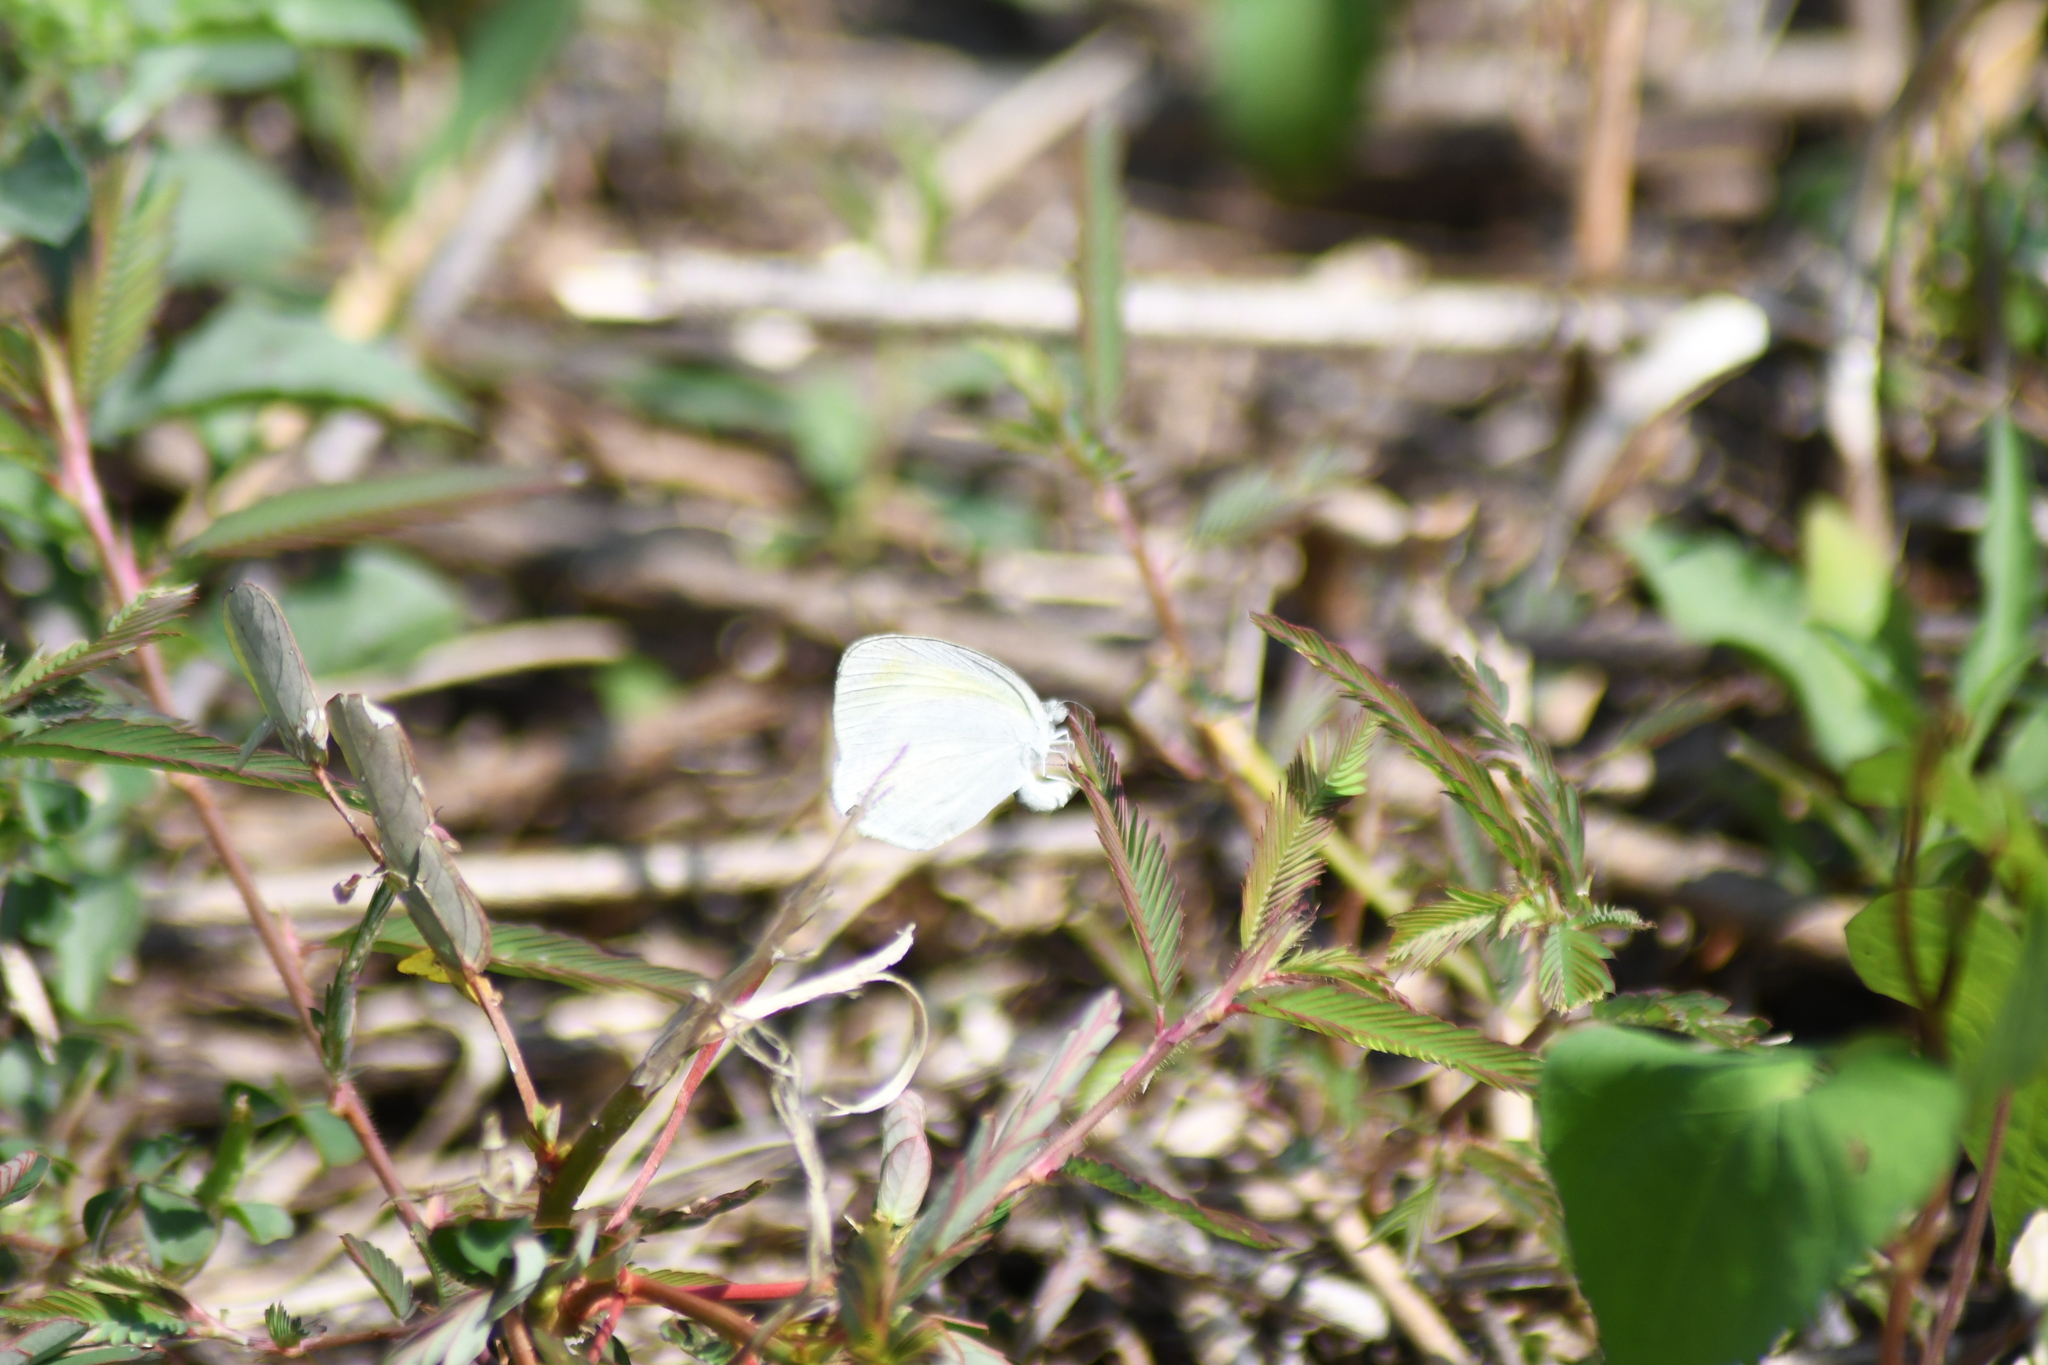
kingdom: Animalia
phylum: Arthropoda
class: Insecta
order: Lepidoptera
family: Pieridae
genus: Eurema
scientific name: Eurema daira
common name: Barred sulphur
